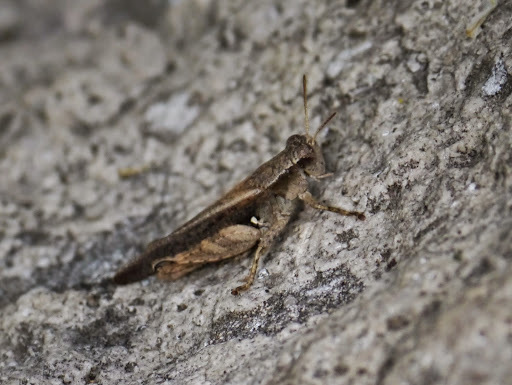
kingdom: Animalia
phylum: Arthropoda
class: Insecta
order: Orthoptera
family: Acrididae
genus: Aidemona
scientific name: Aidemona azteca
